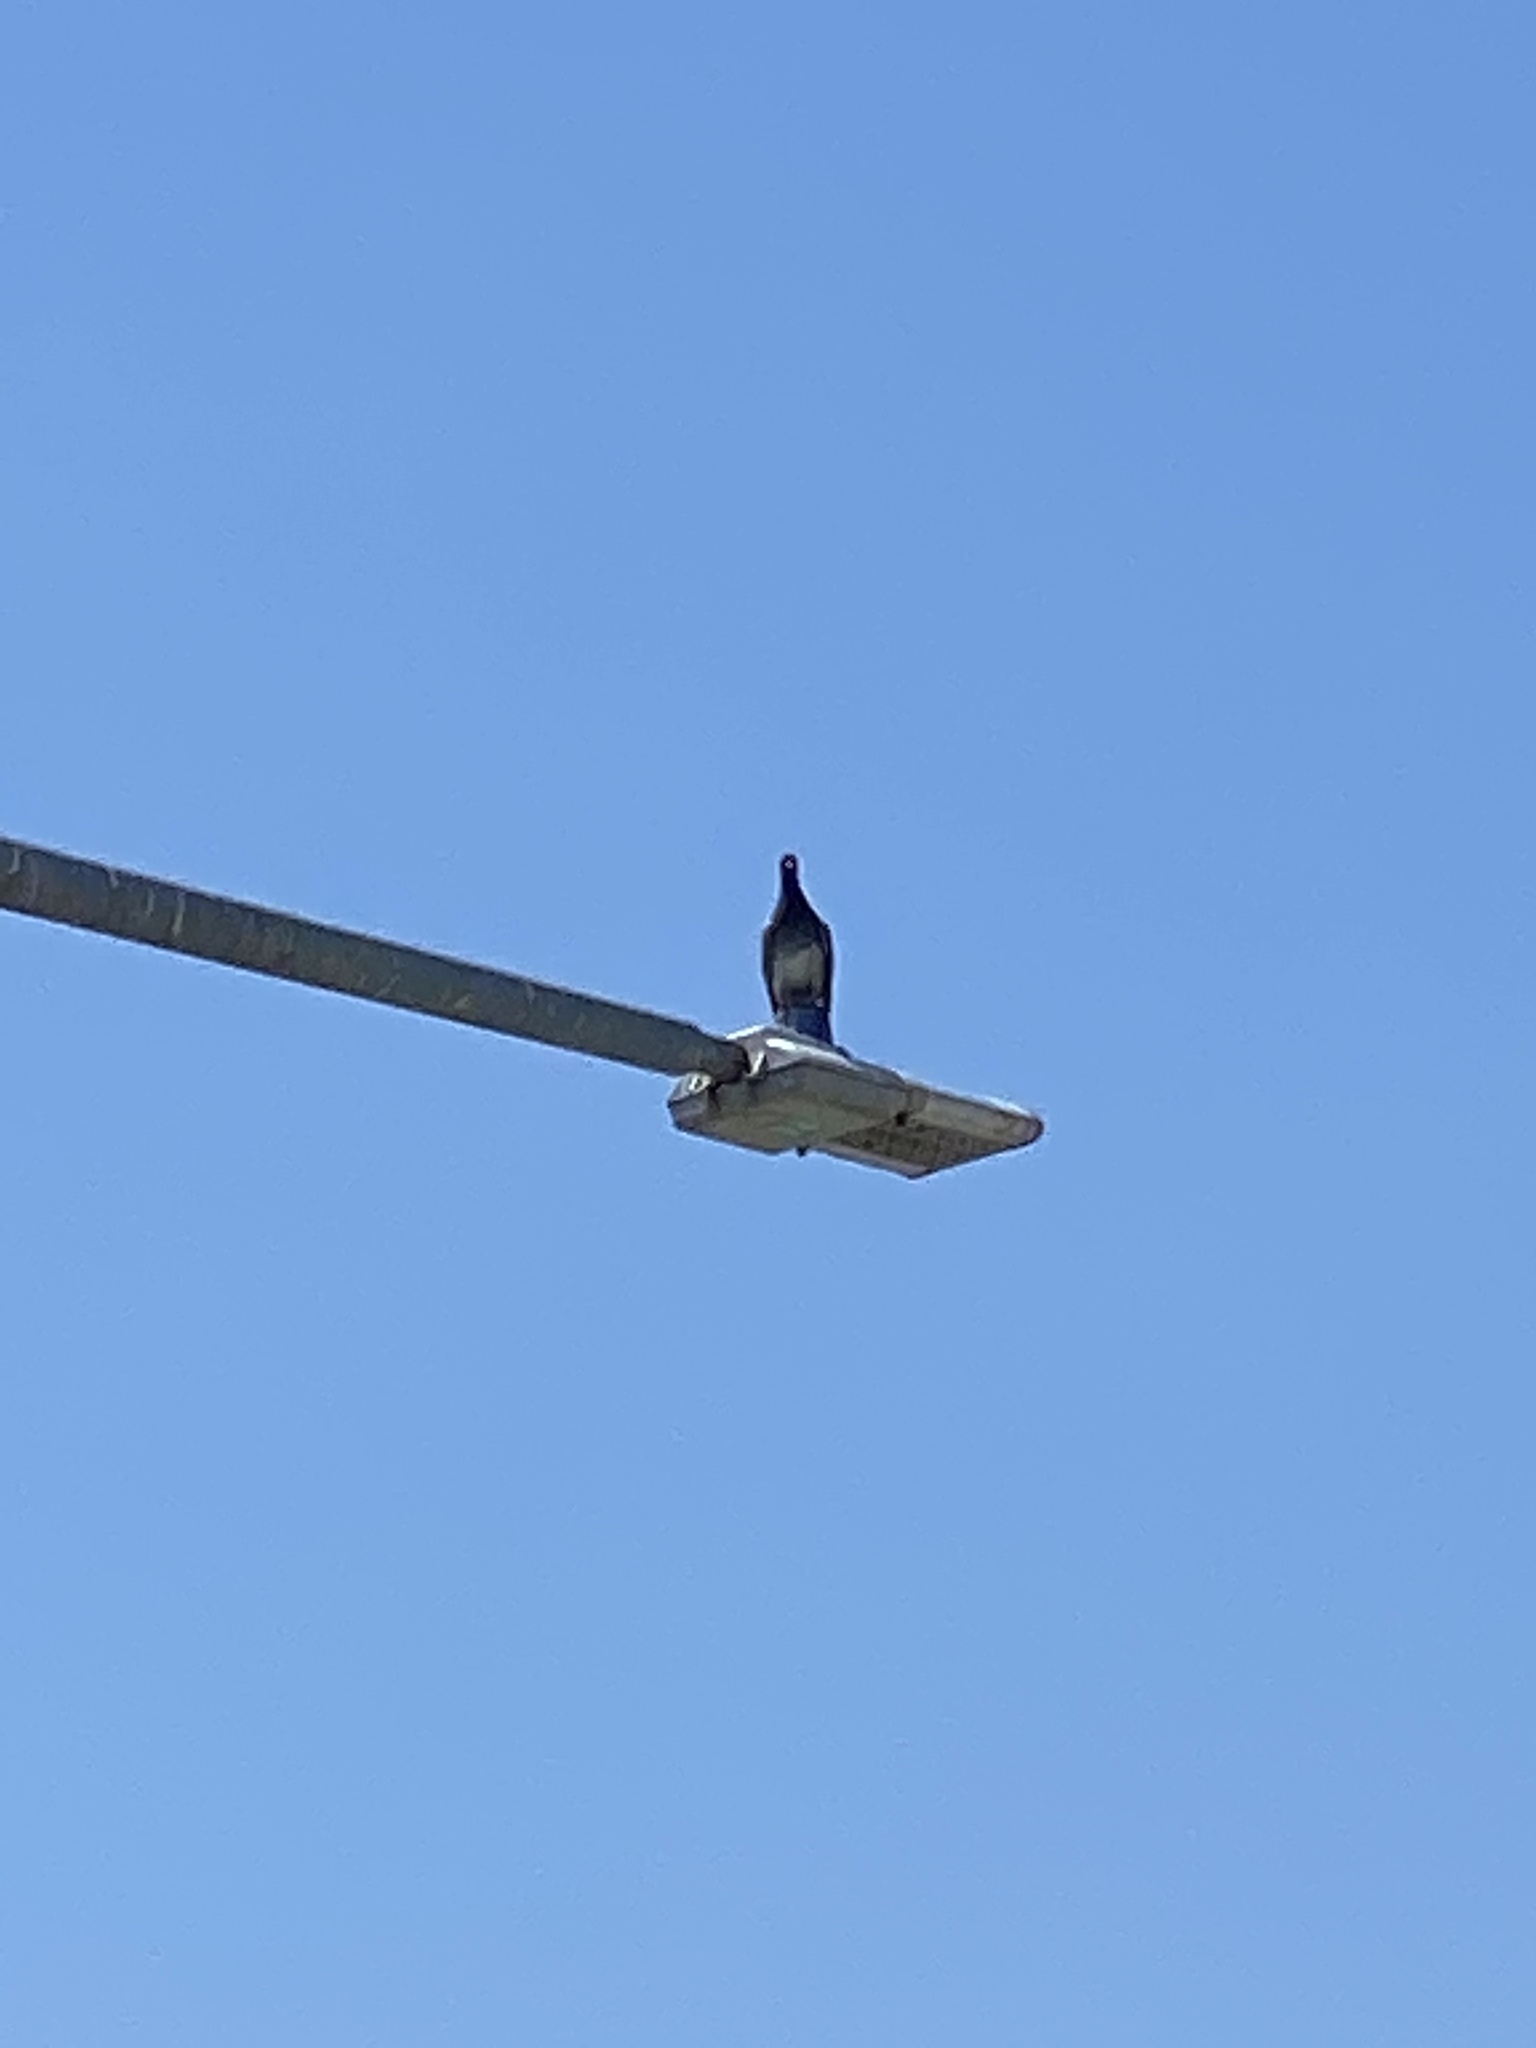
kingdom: Animalia
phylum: Chordata
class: Aves
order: Columbiformes
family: Columbidae
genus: Columba
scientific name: Columba livia
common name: Rock pigeon
